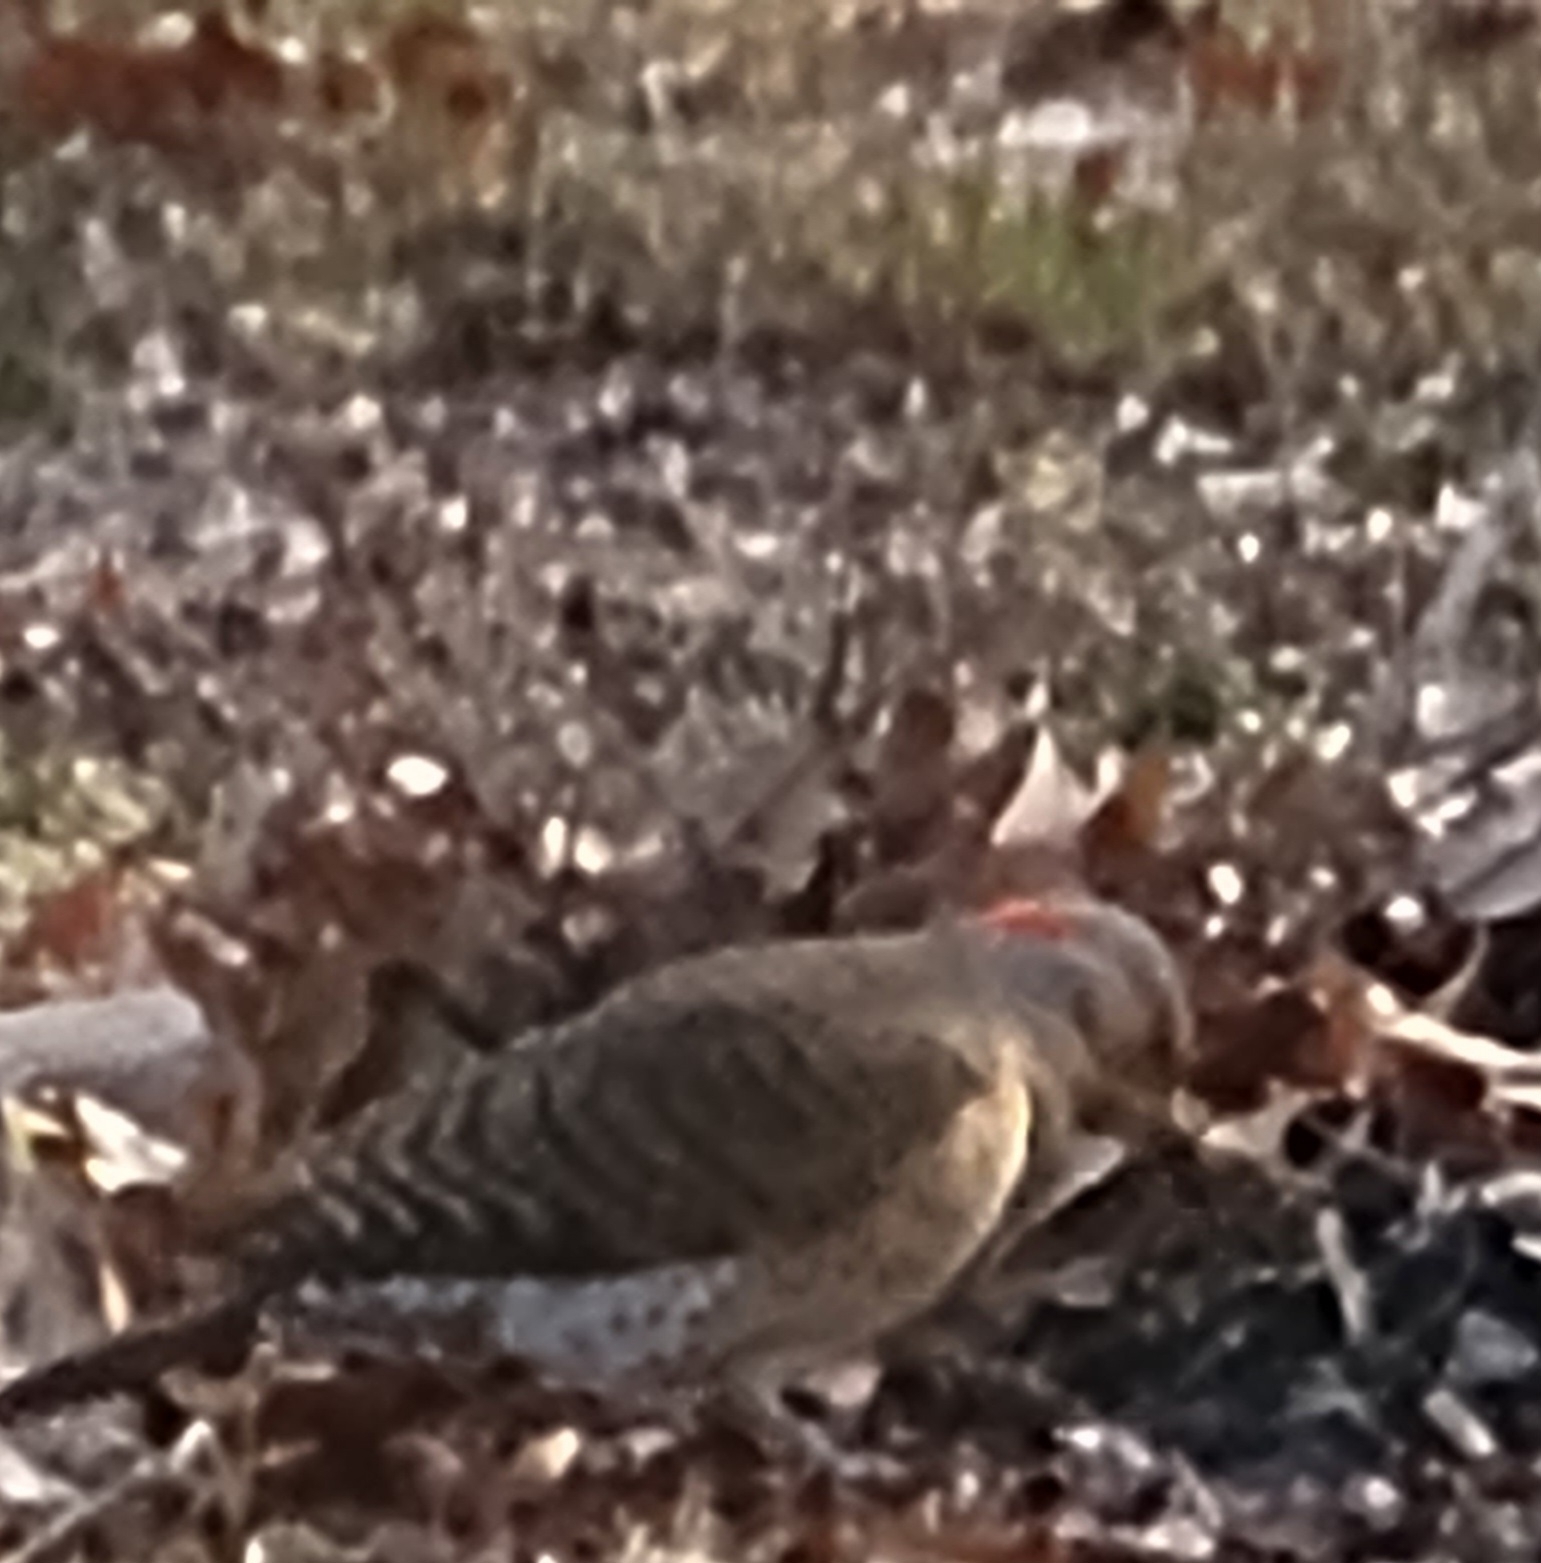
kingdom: Animalia
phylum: Chordata
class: Aves
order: Piciformes
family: Picidae
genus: Colaptes
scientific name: Colaptes auratus
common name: Northern flicker
